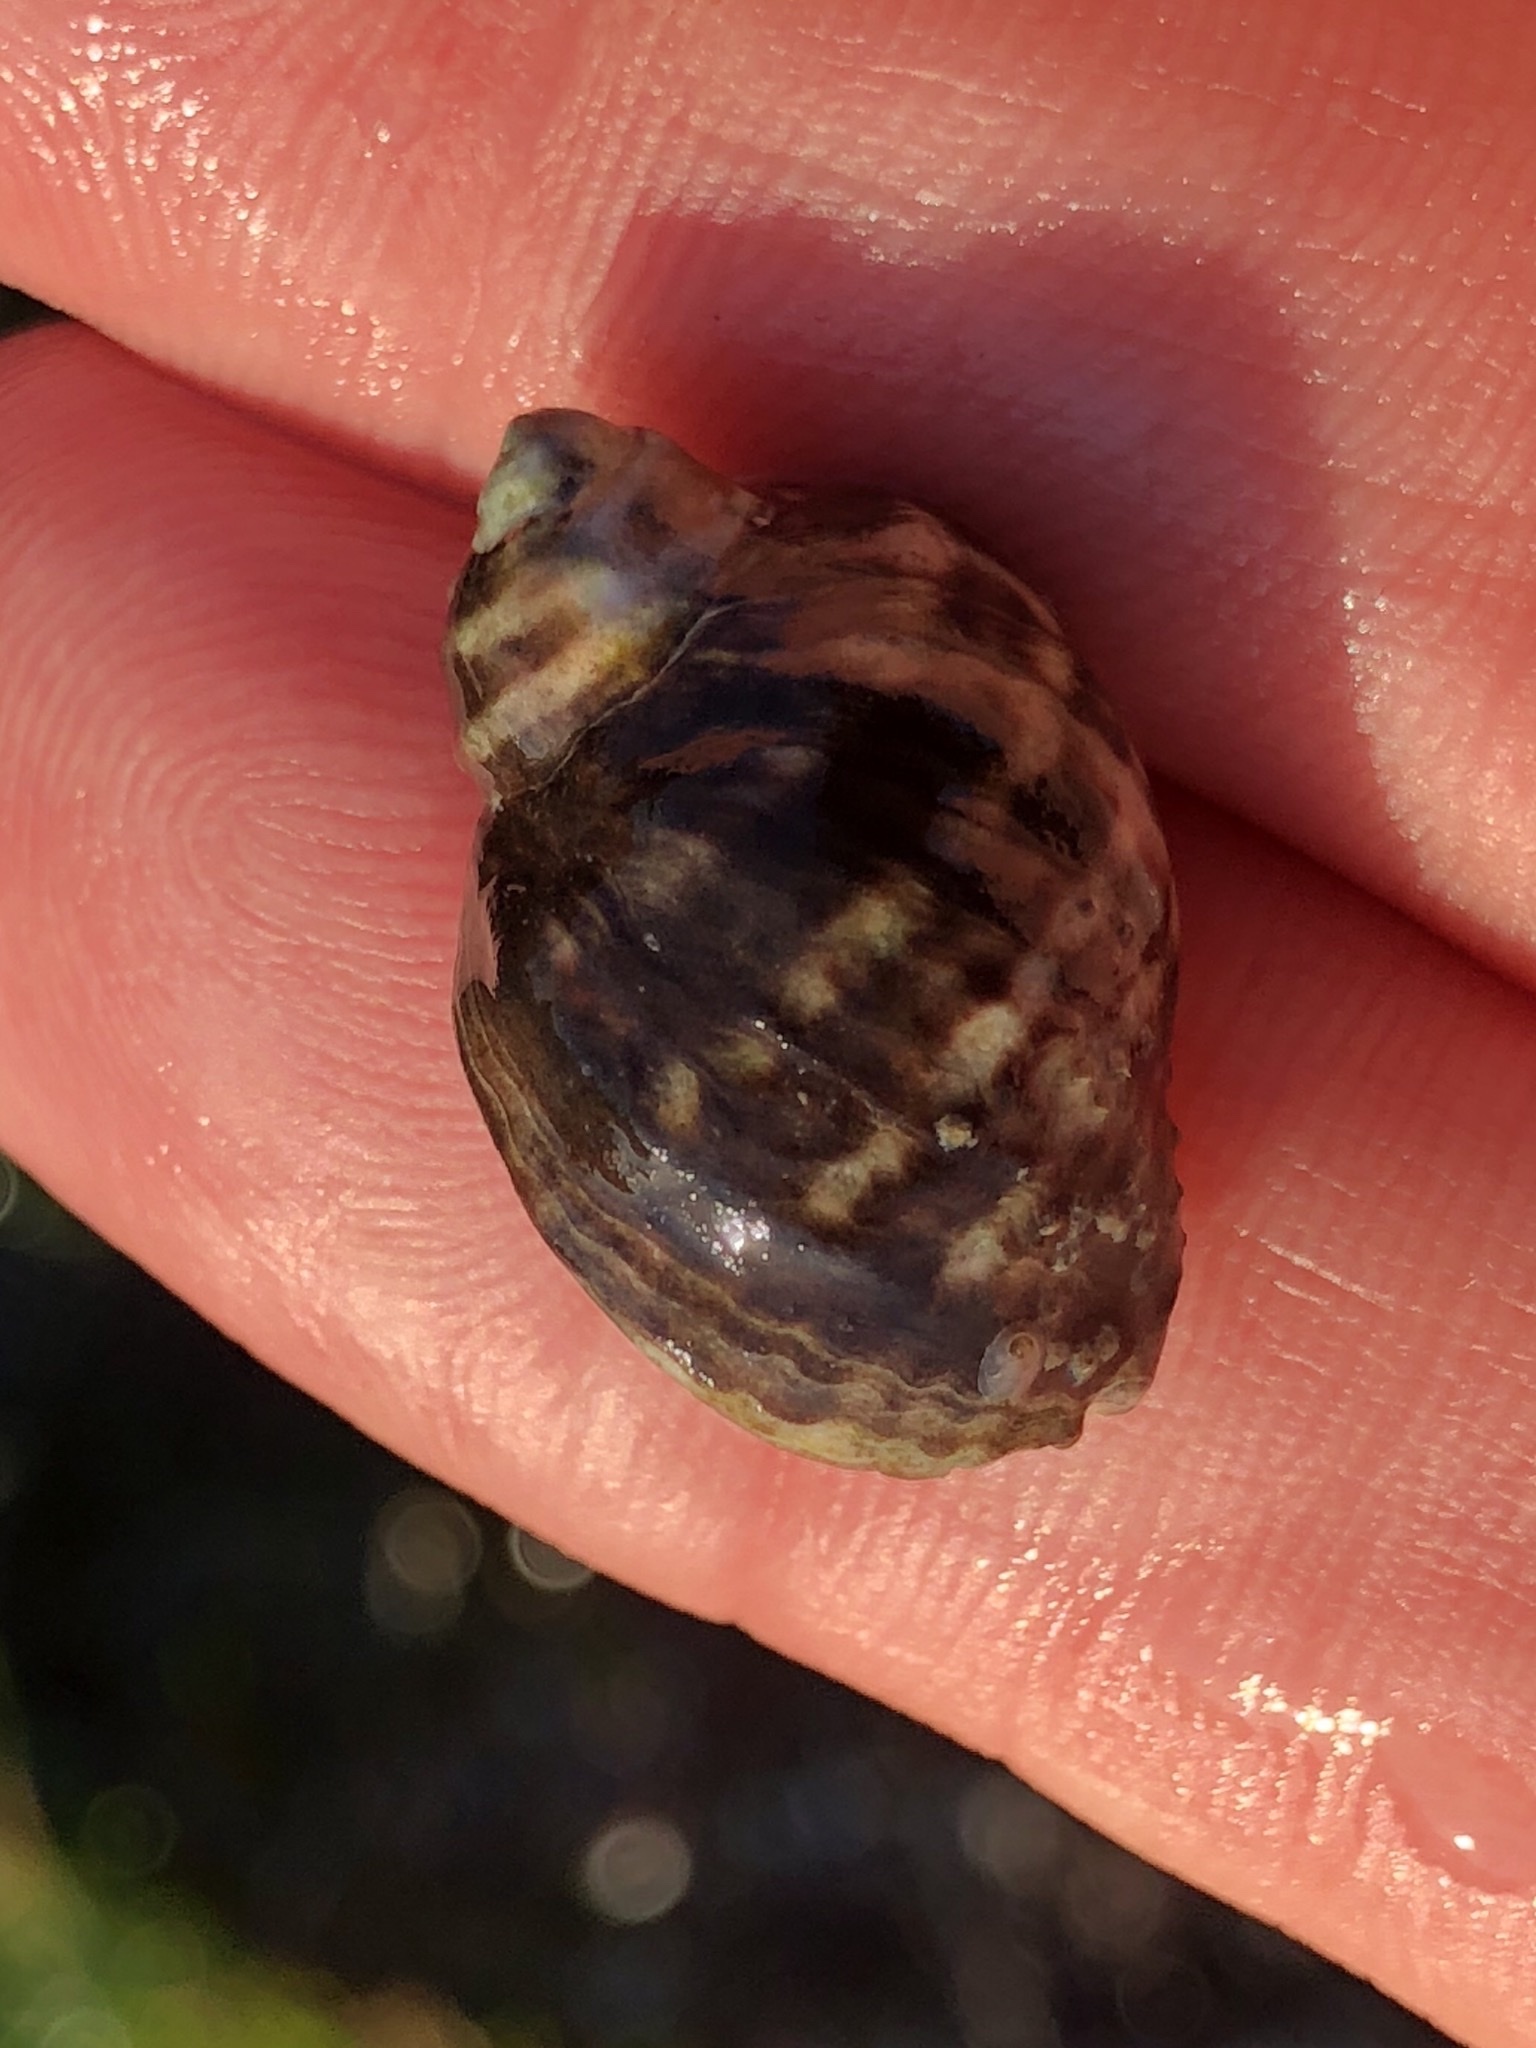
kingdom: Animalia
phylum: Mollusca
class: Gastropoda
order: Neogastropoda
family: Muricidae
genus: Nucella
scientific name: Nucella ostrina
